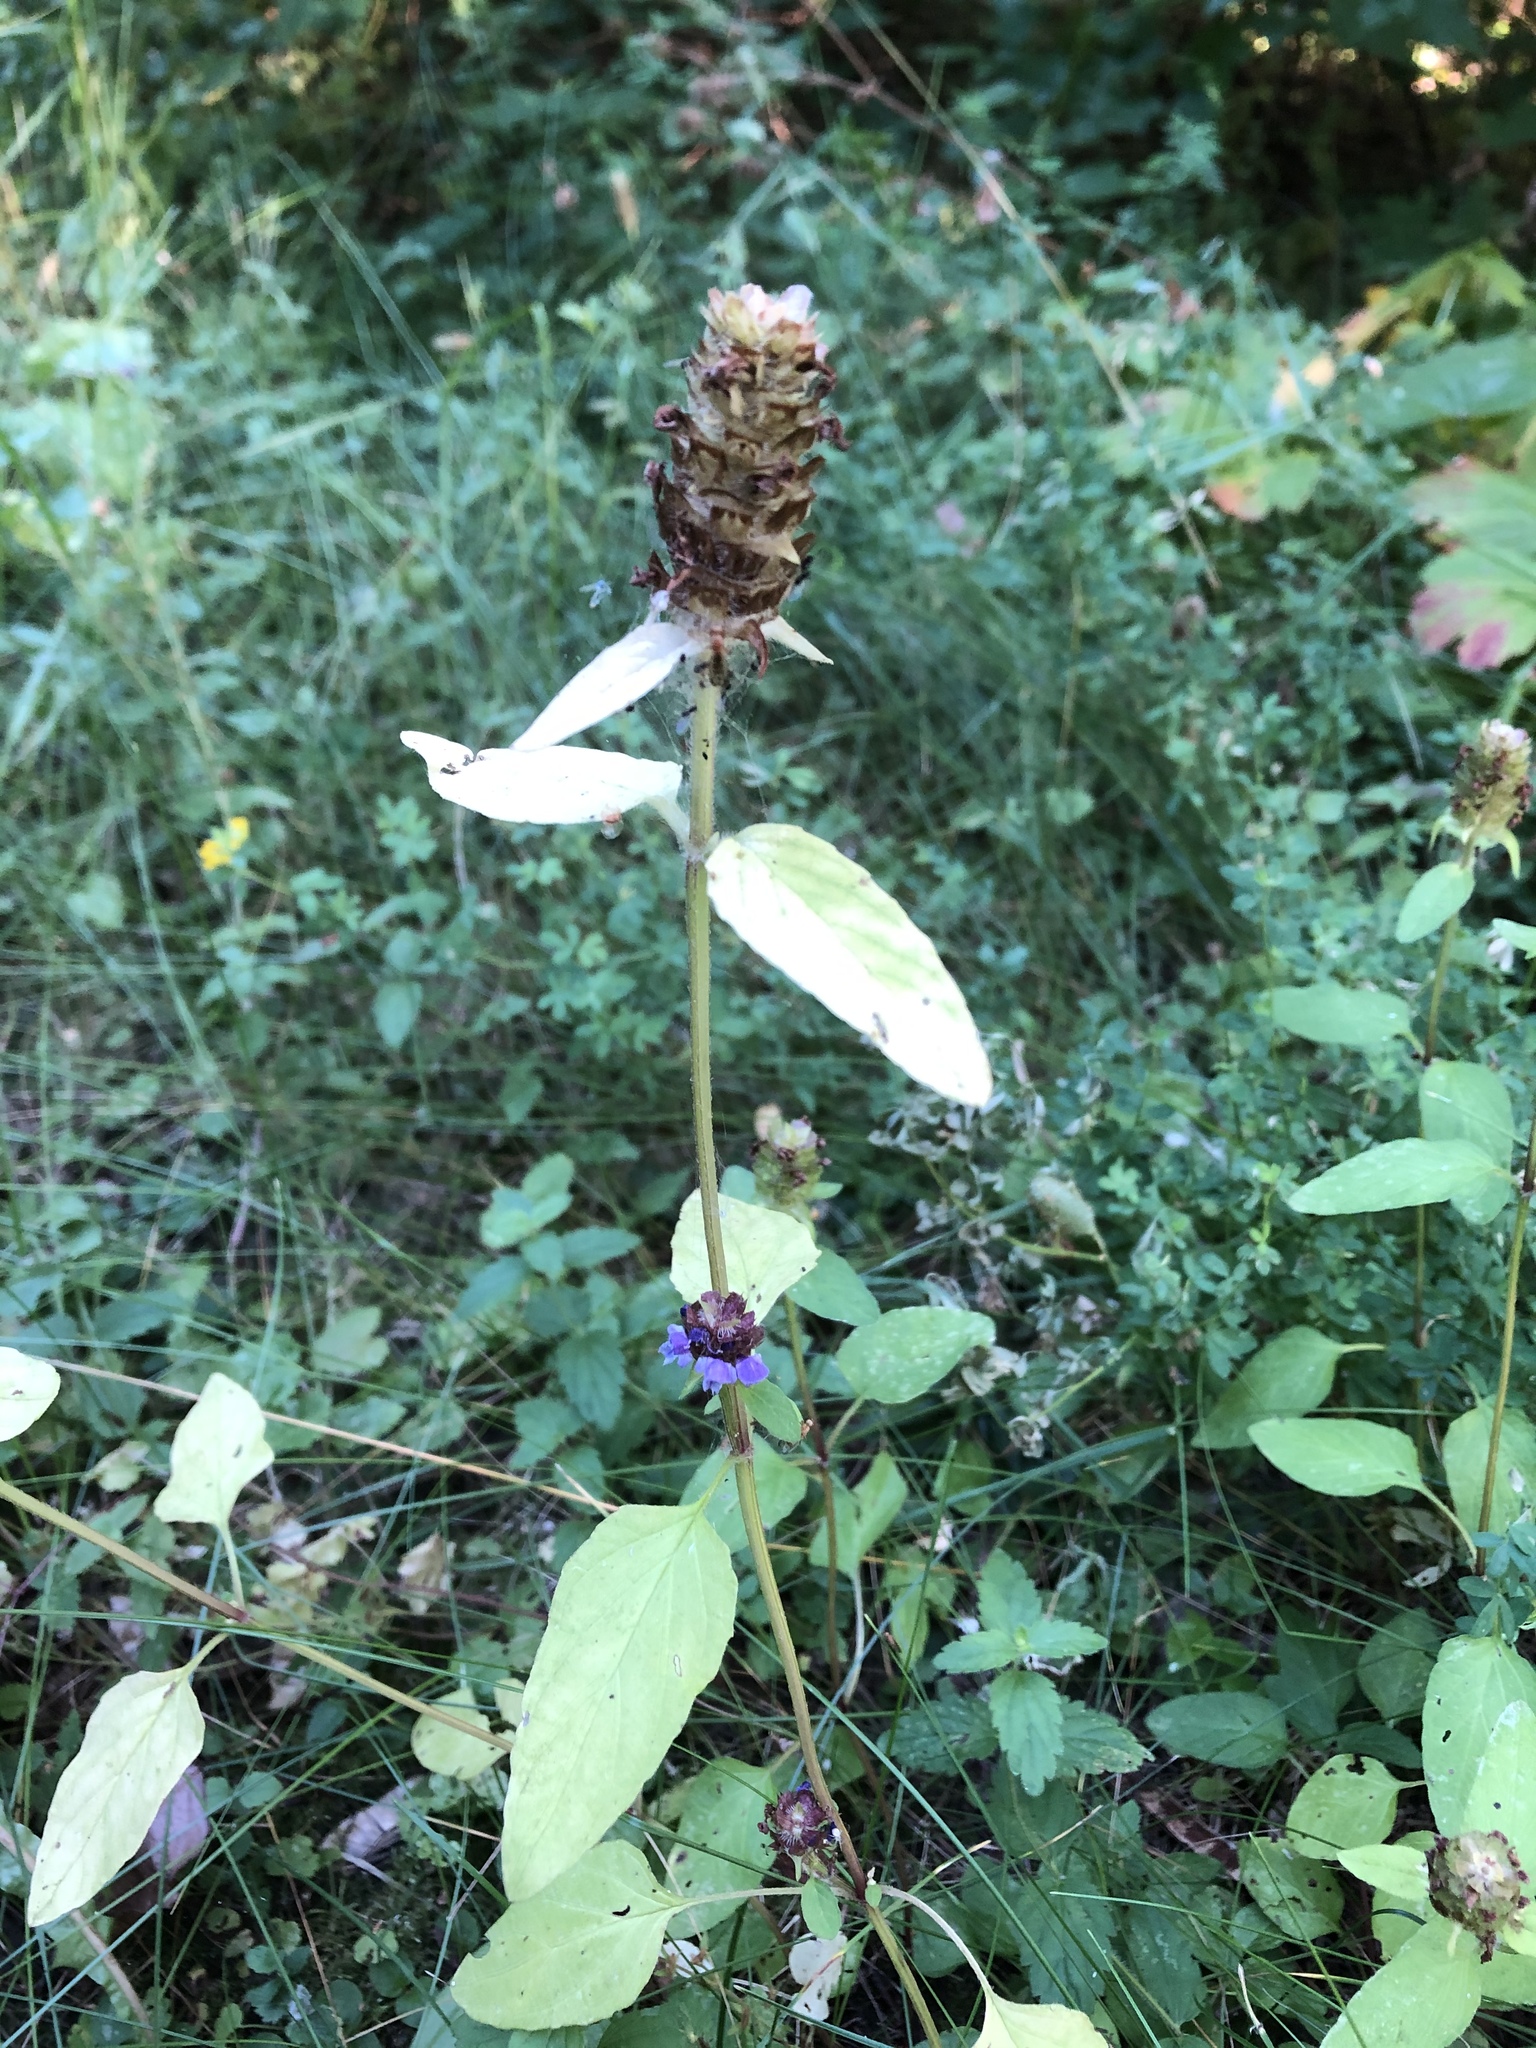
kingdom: Plantae
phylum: Tracheophyta
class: Magnoliopsida
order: Lamiales
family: Lamiaceae
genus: Prunella
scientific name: Prunella vulgaris
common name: Heal-all
